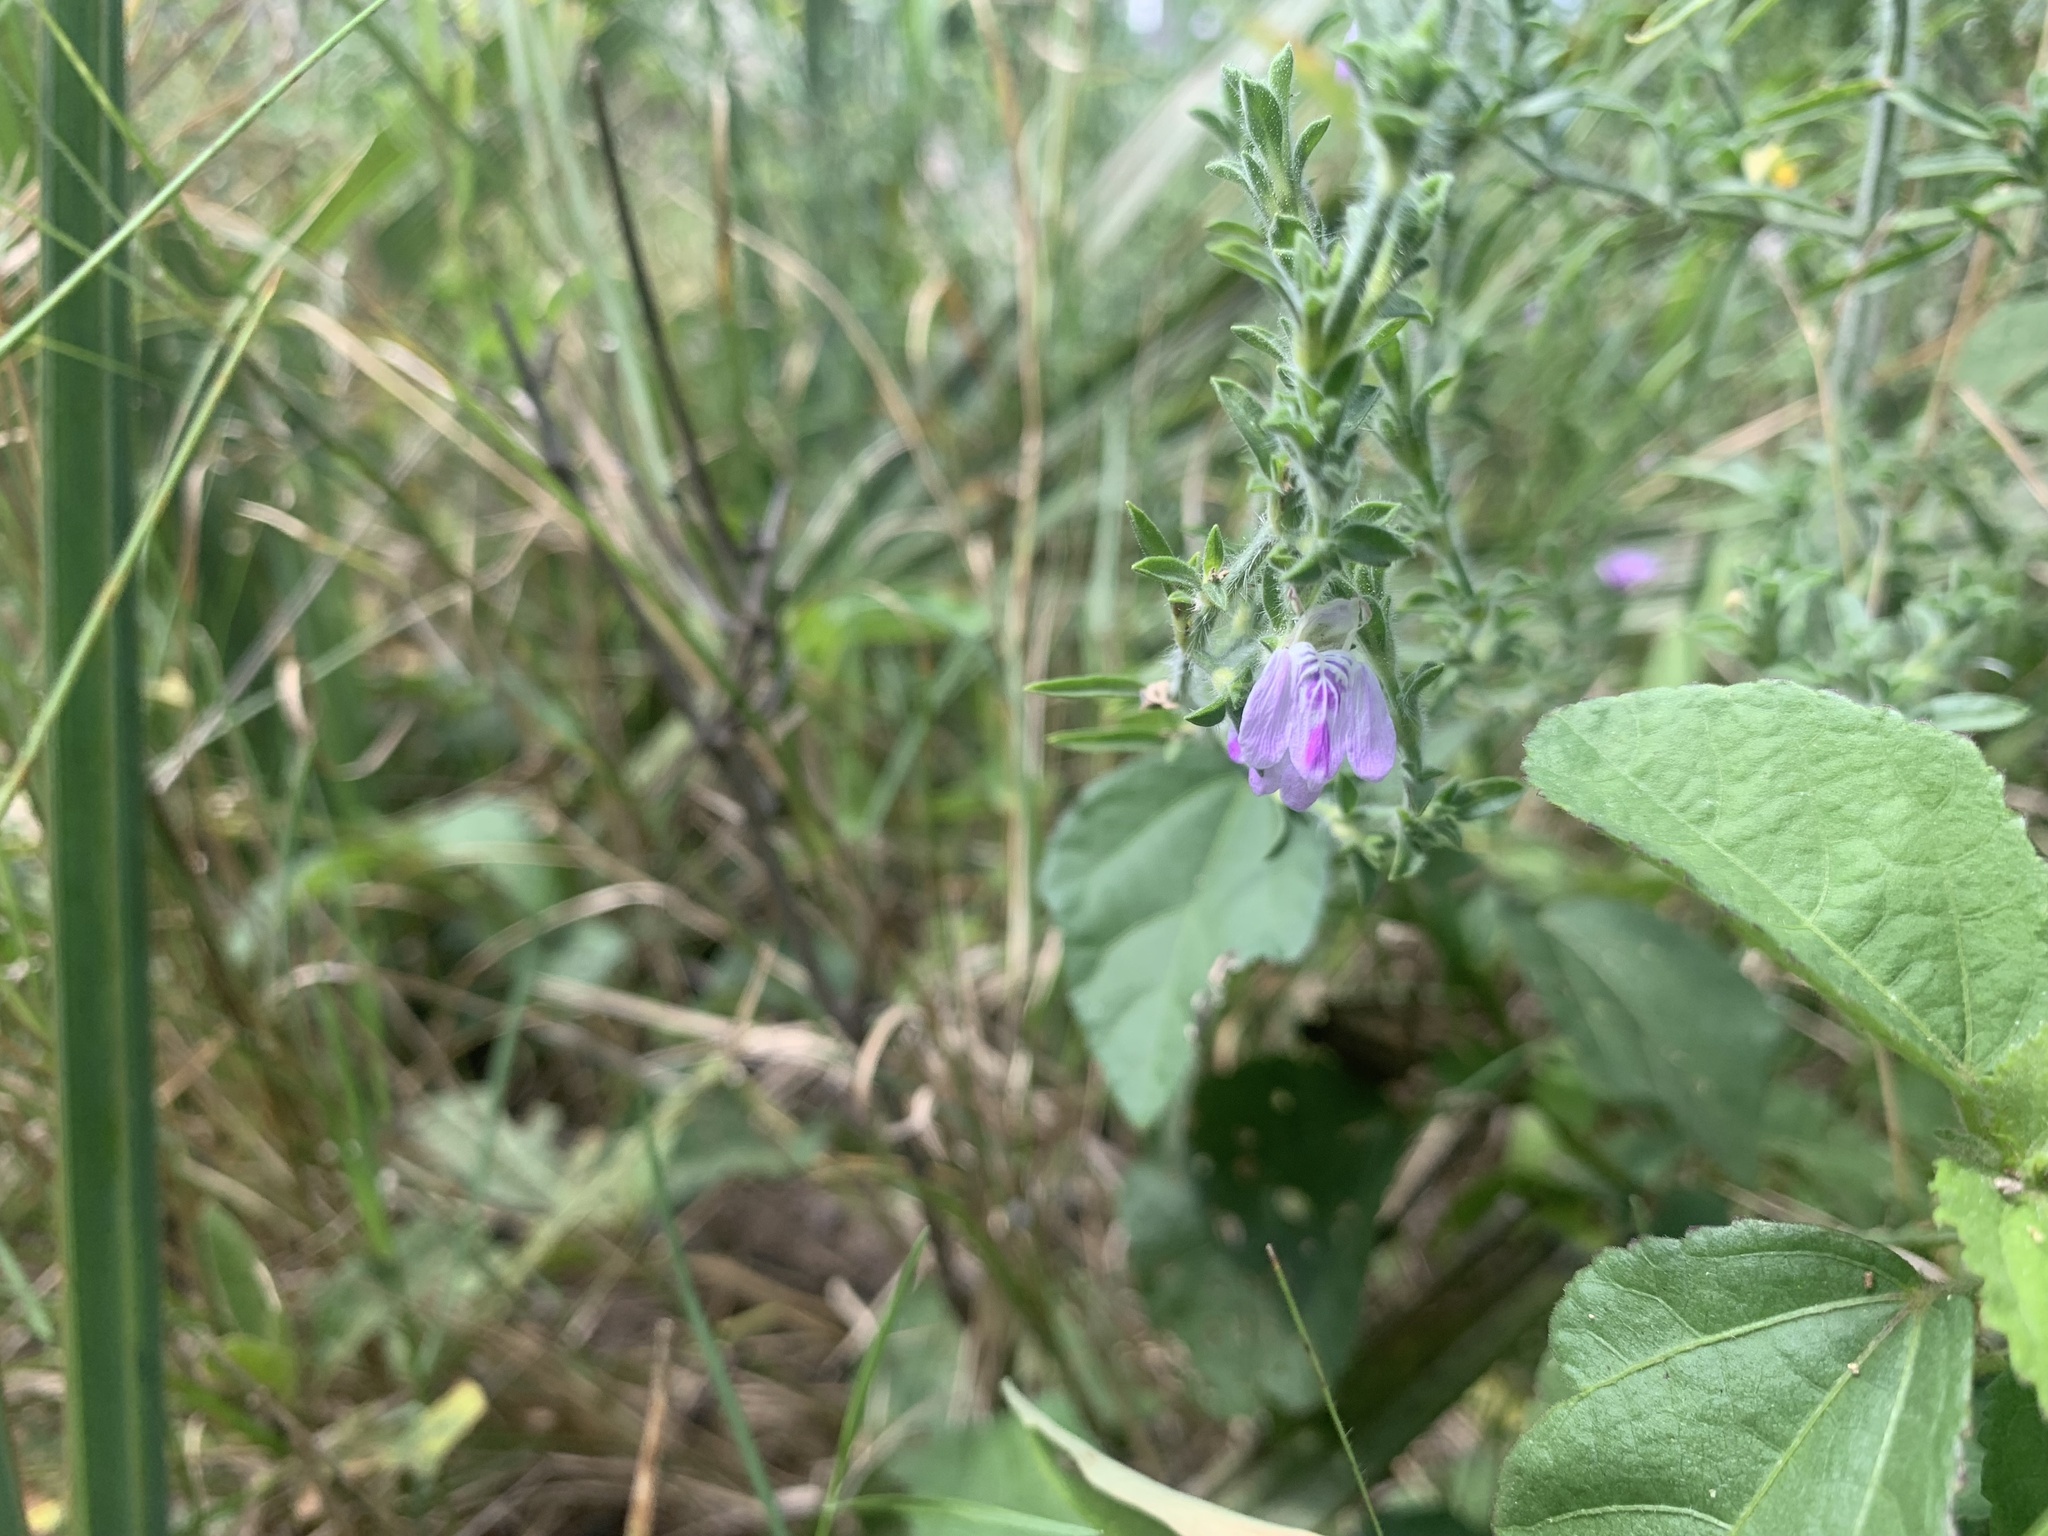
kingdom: Plantae
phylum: Tracheophyta
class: Magnoliopsida
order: Lamiales
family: Acanthaceae
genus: Pogonospermum
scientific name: Pogonospermum
